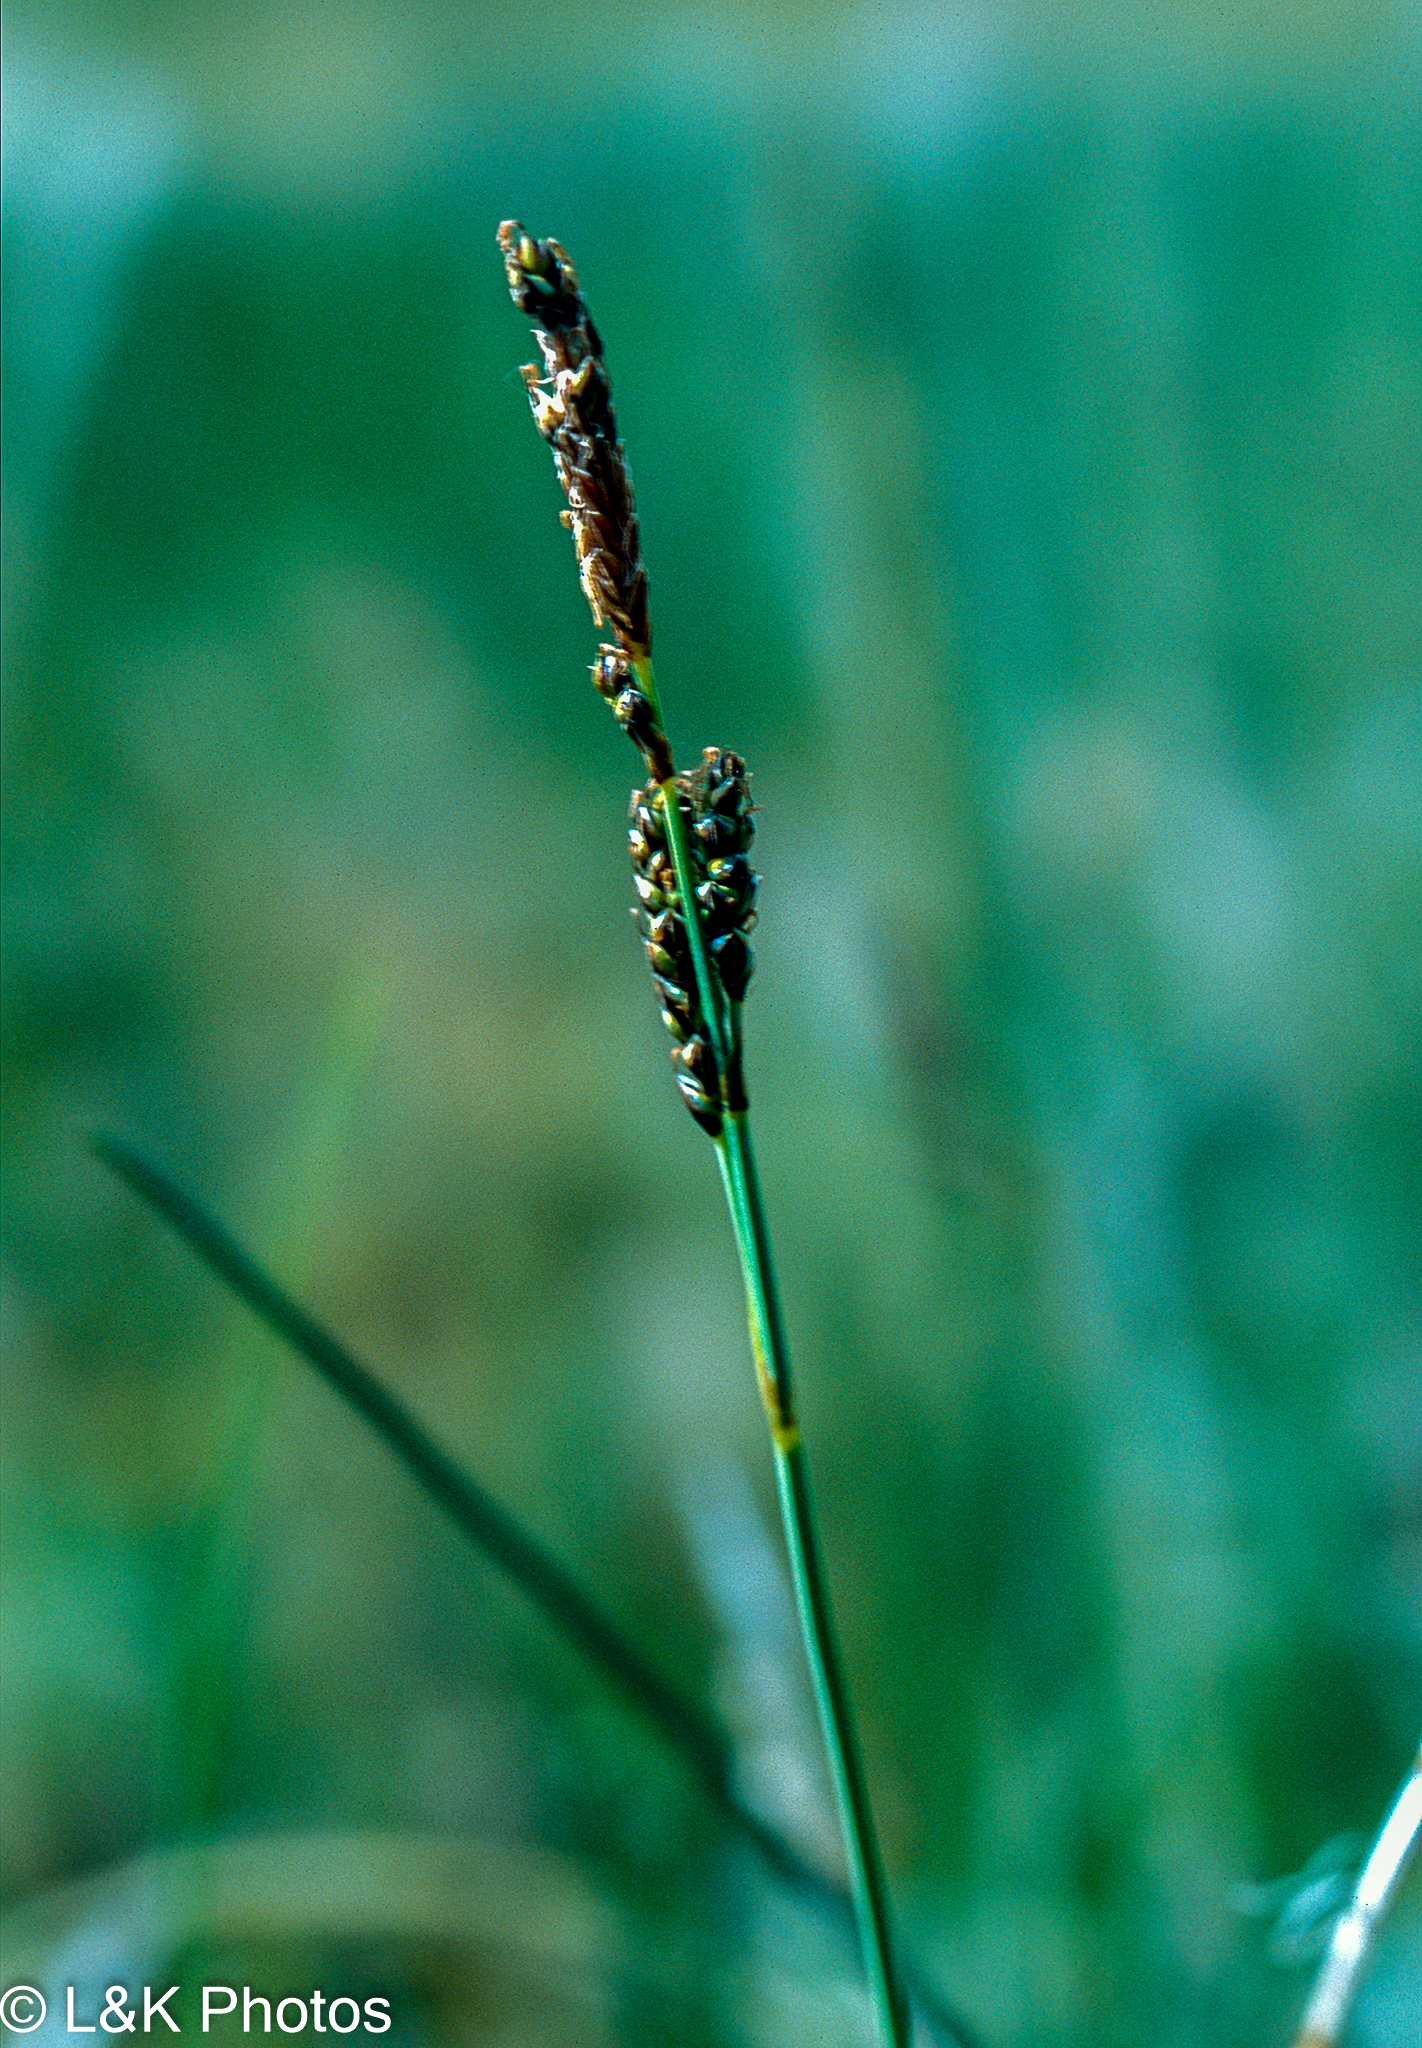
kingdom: Plantae
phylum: Tracheophyta
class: Liliopsida
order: Poales
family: Cyperaceae
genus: Carex
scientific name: Carex parryana
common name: Parry's sedge
